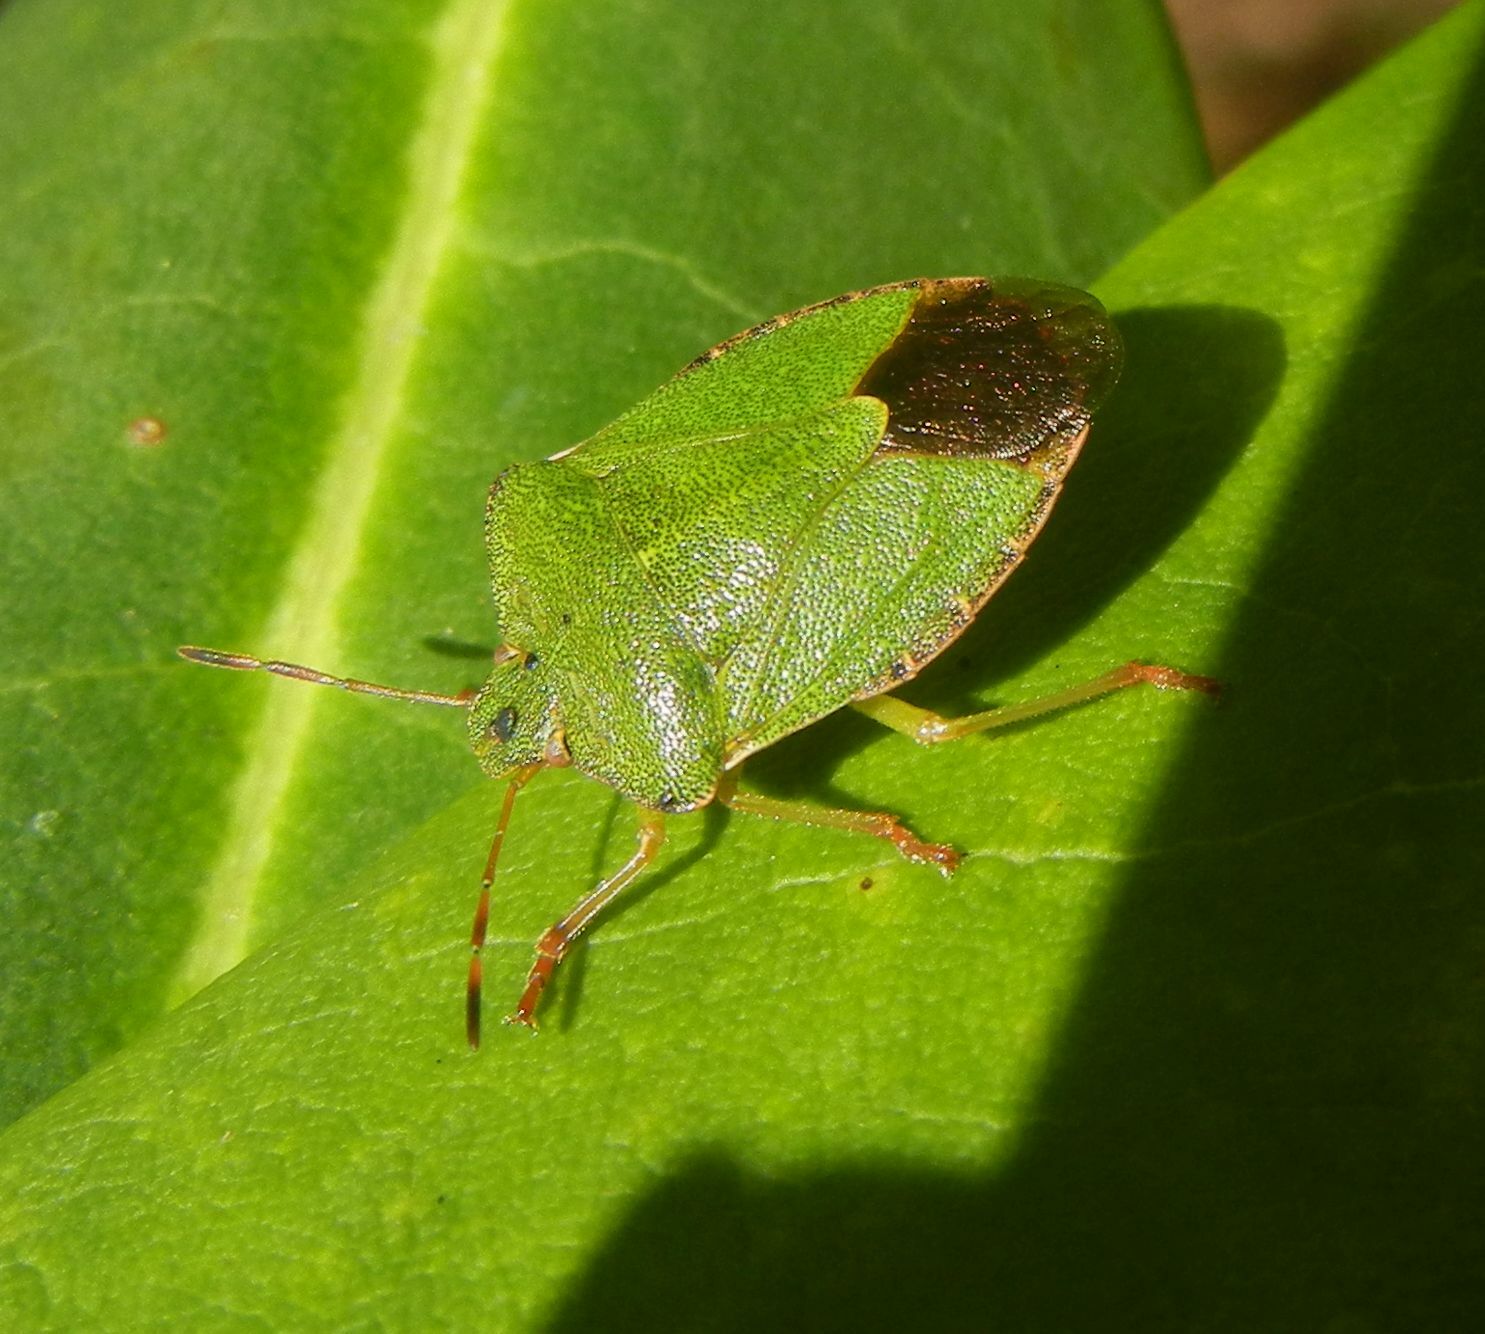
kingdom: Animalia
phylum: Arthropoda
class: Insecta
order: Hemiptera
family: Pentatomidae
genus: Palomena
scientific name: Palomena prasina
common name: Green shieldbug
